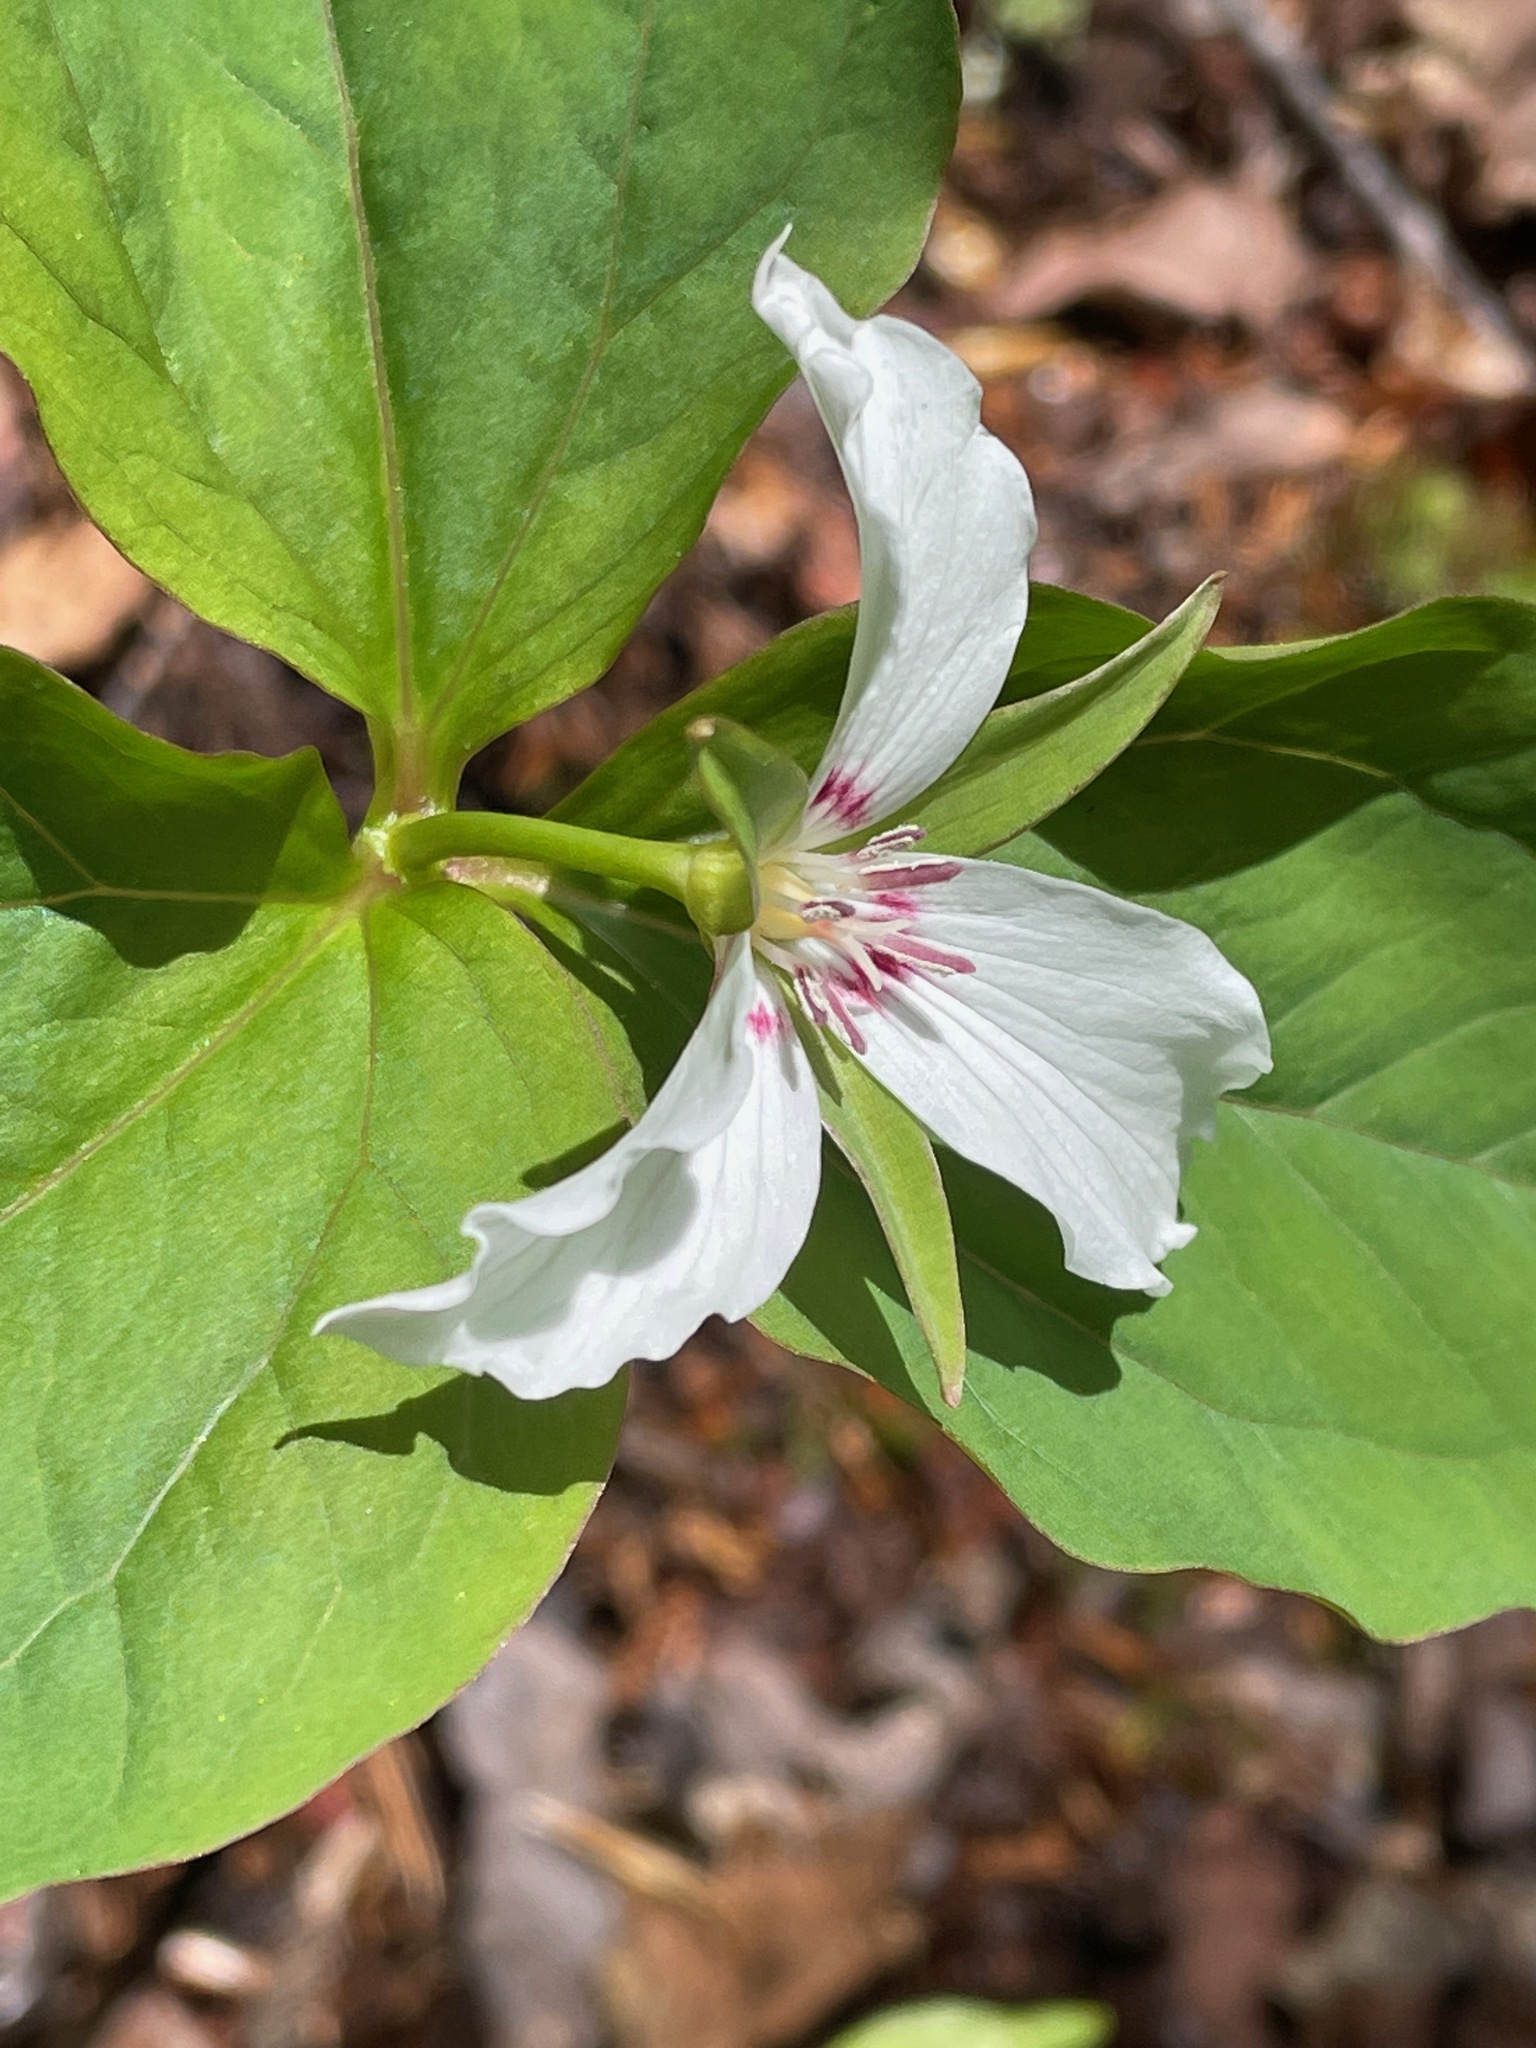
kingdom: Plantae
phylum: Tracheophyta
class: Liliopsida
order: Liliales
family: Melanthiaceae
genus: Trillium
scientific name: Trillium undulatum
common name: Paint trillium
